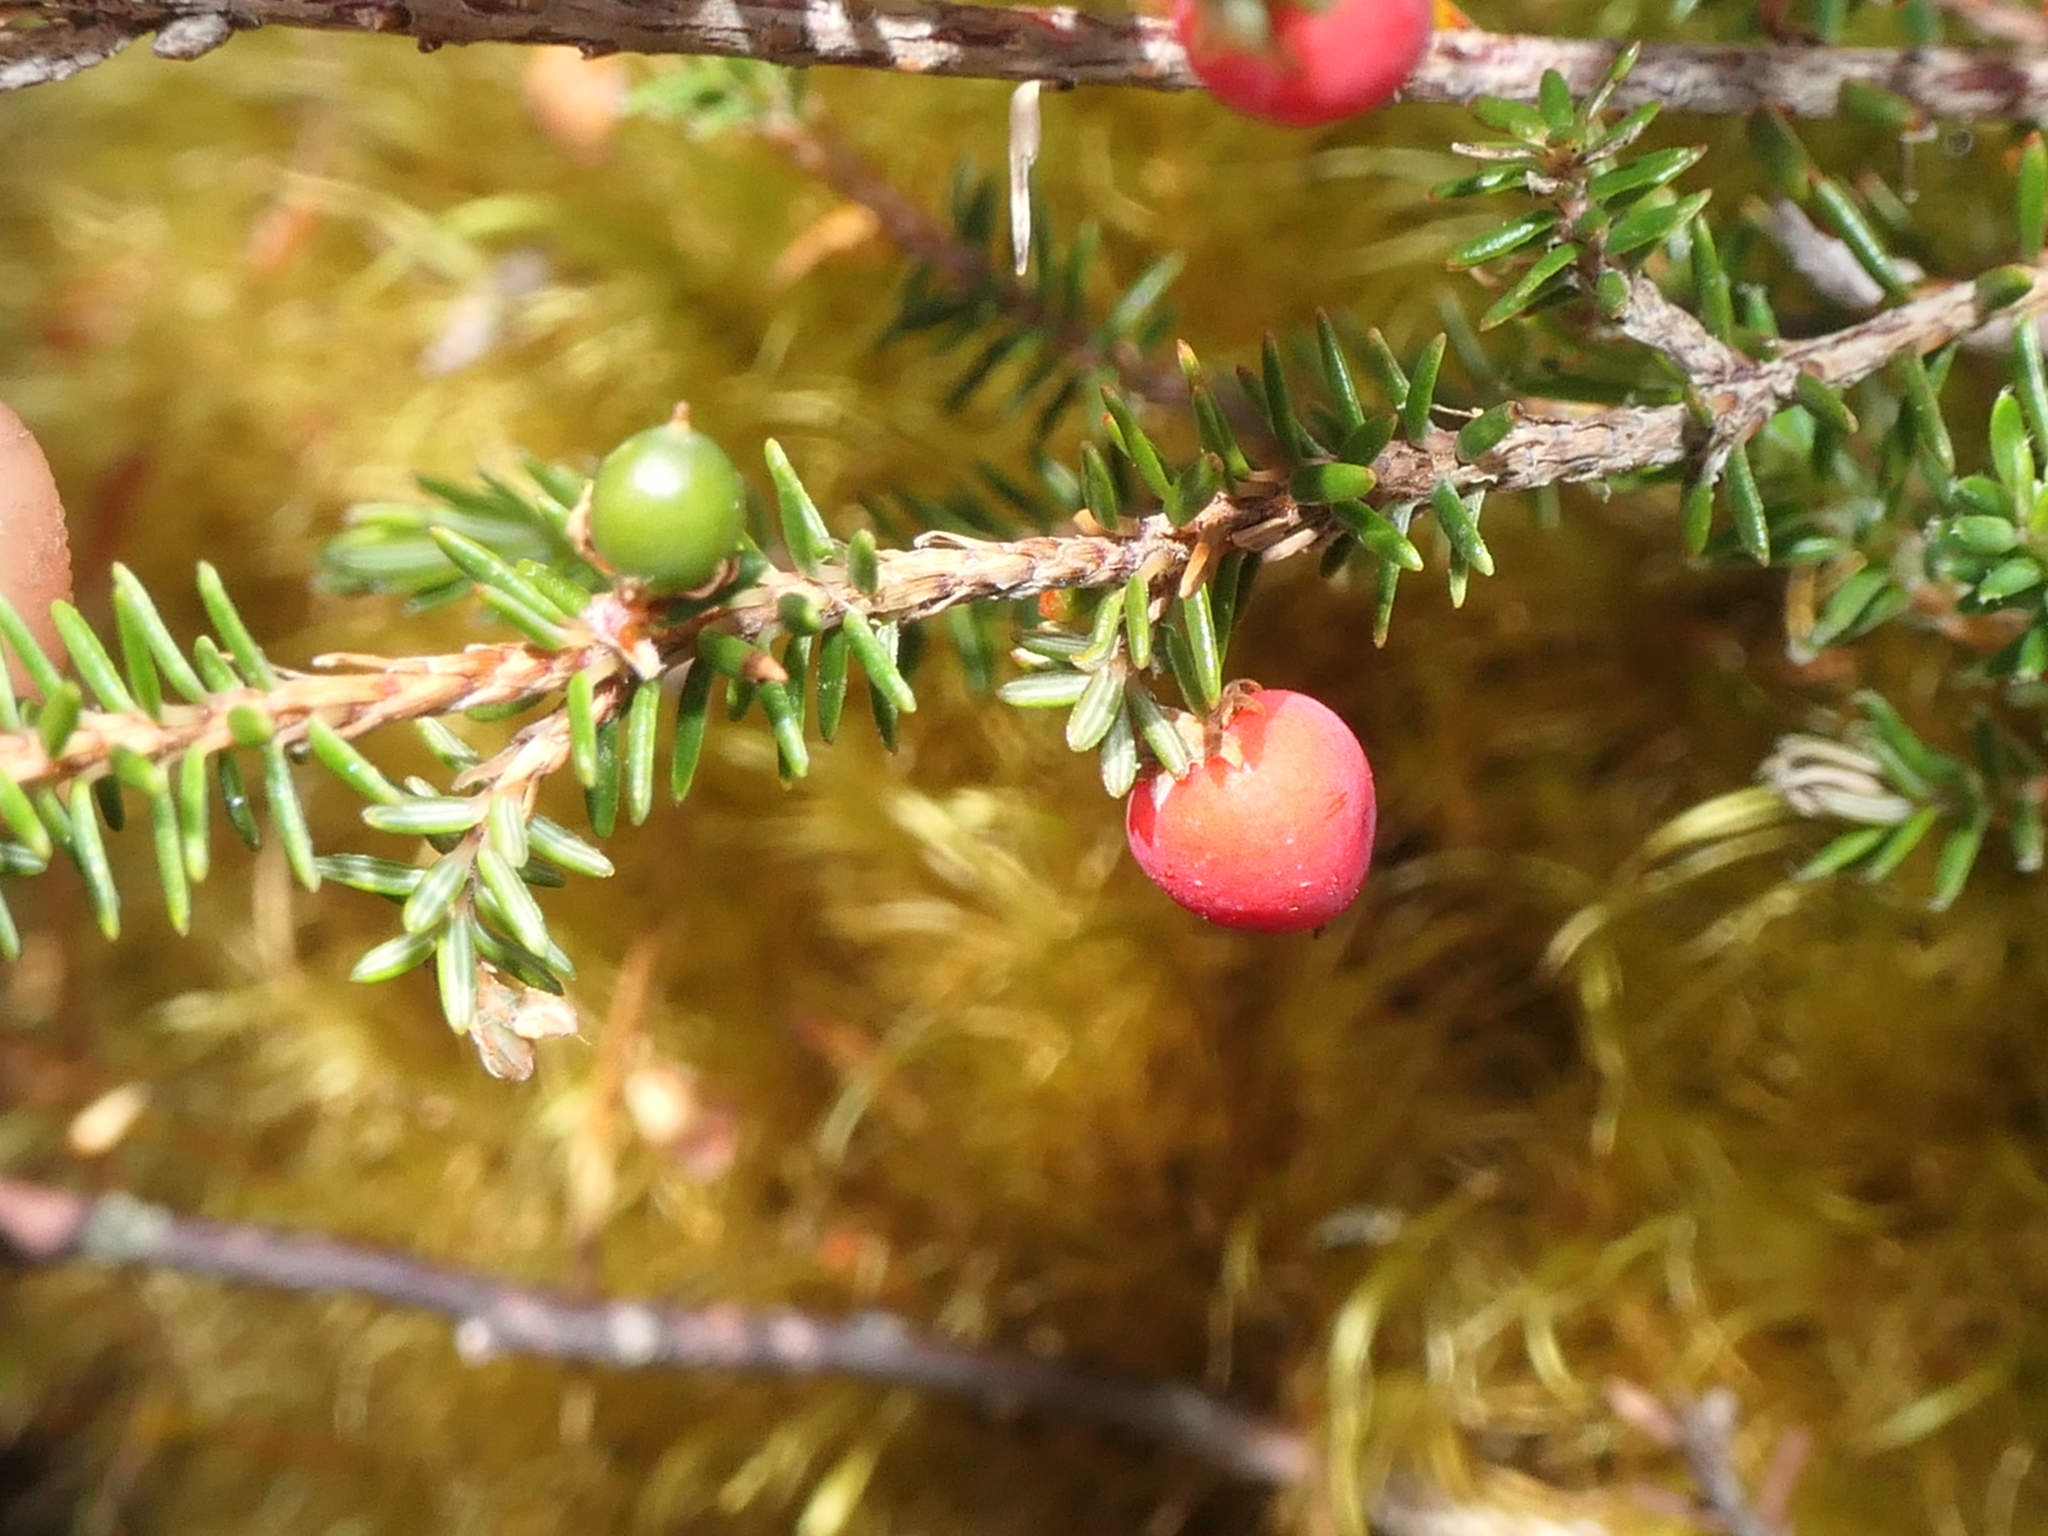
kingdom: Plantae
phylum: Tracheophyta
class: Magnoliopsida
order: Ericales
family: Ericaceae
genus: Androstoma
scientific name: Androstoma empetrifolia
